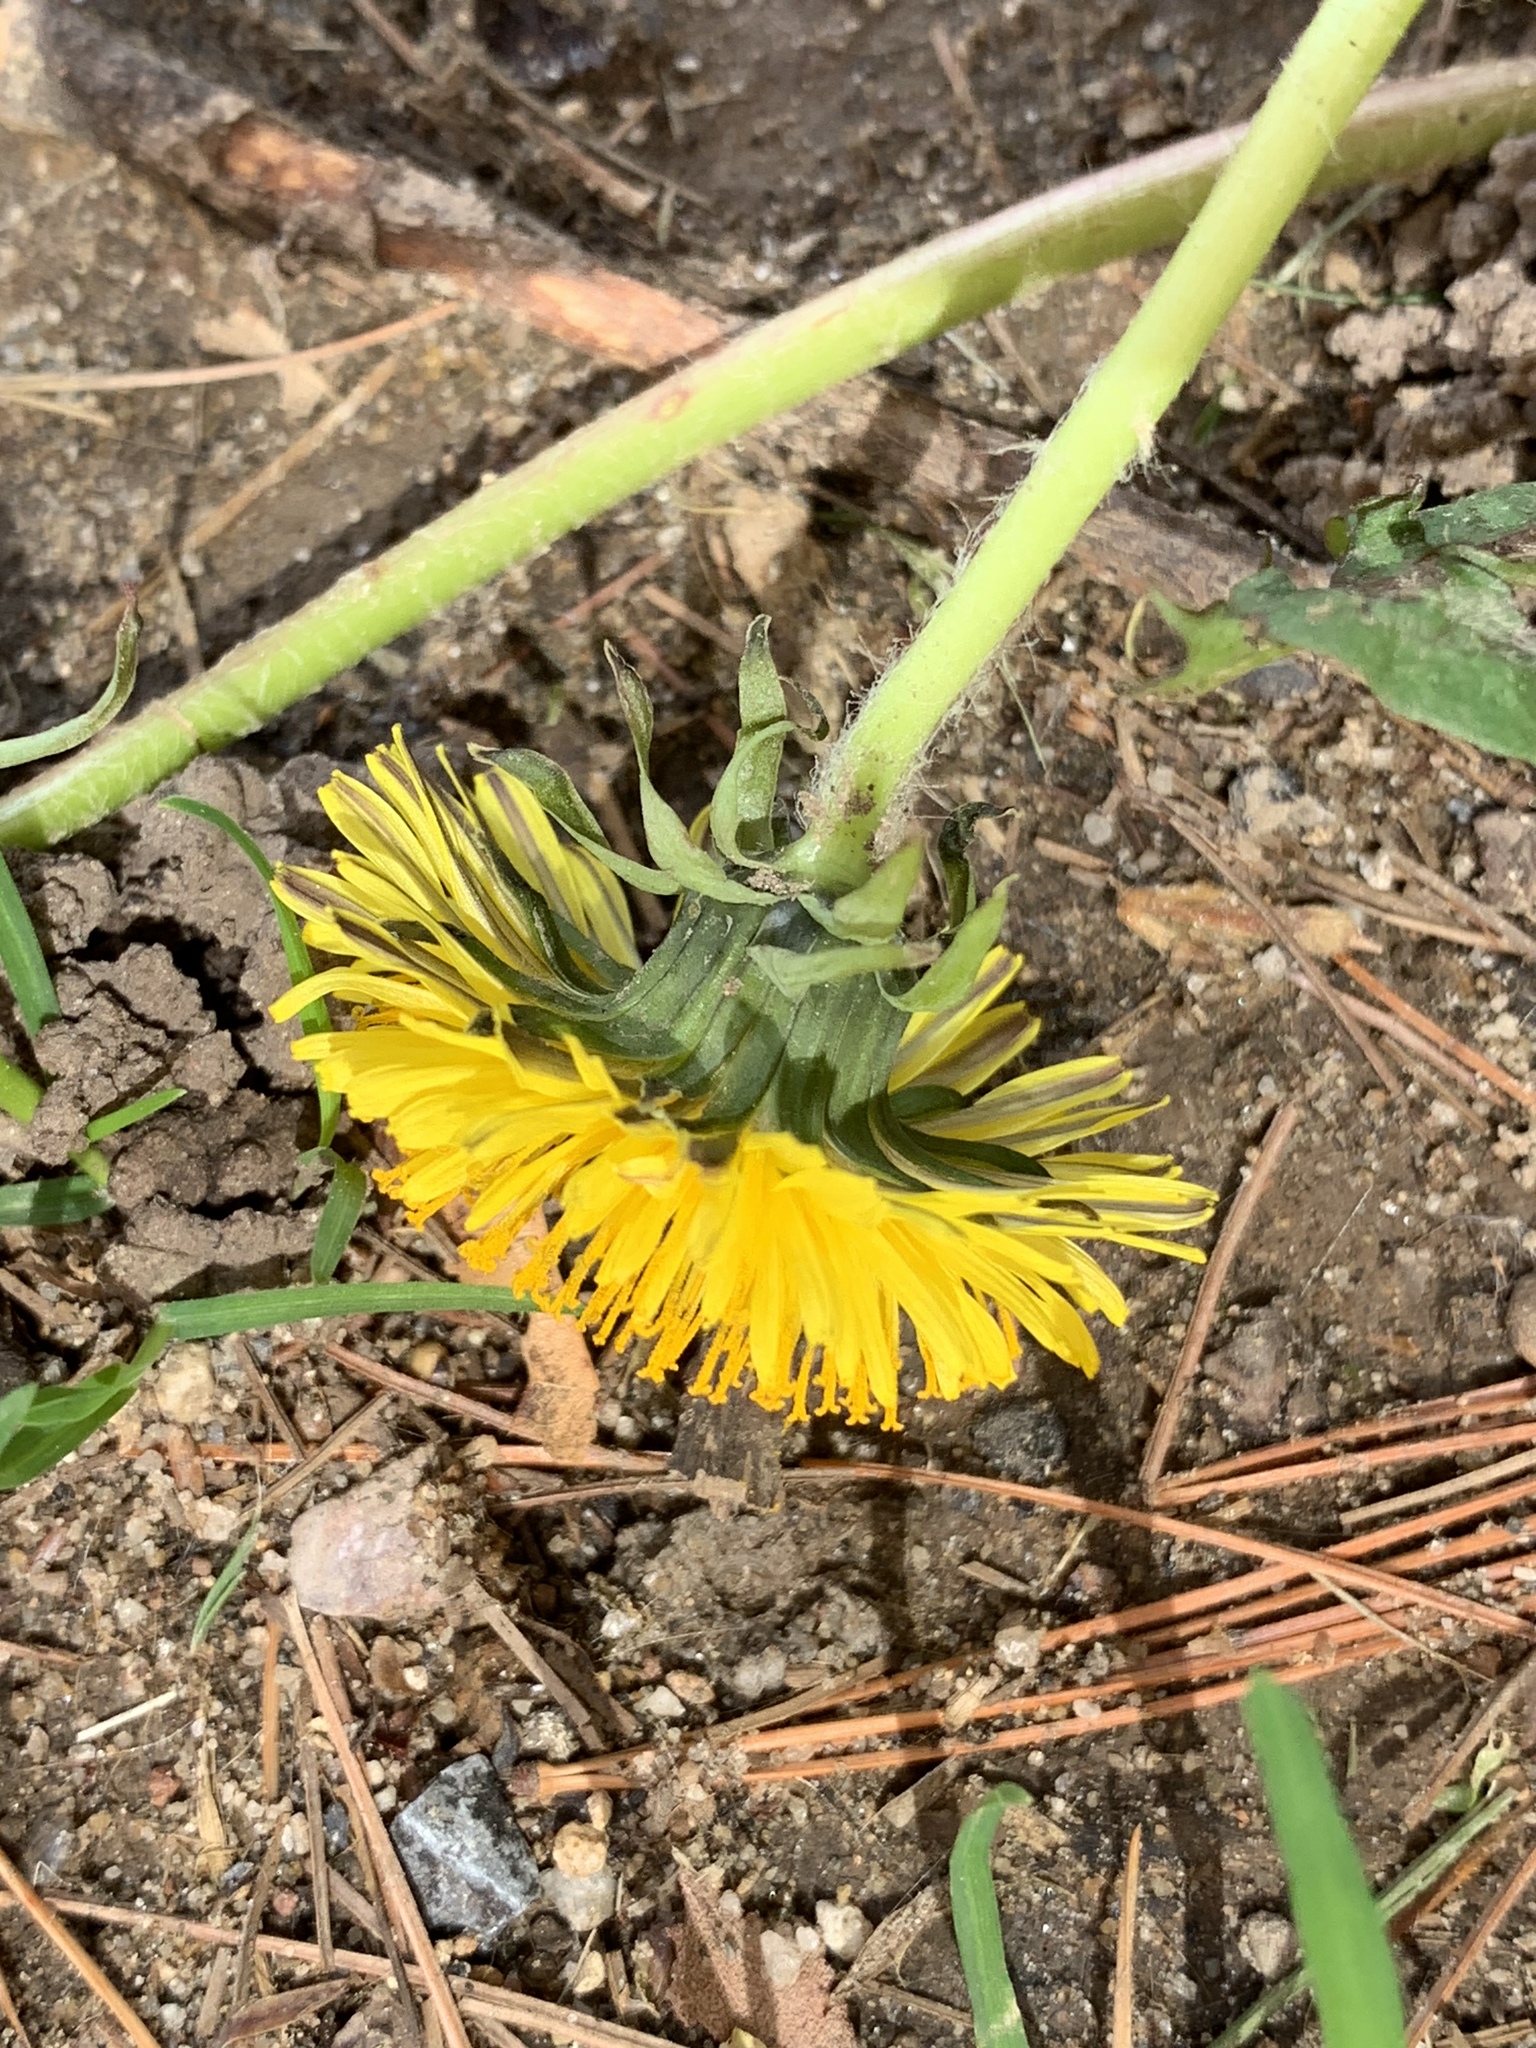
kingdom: Plantae
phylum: Tracheophyta
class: Magnoliopsida
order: Asterales
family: Asteraceae
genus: Taraxacum
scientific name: Taraxacum officinale
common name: Common dandelion
